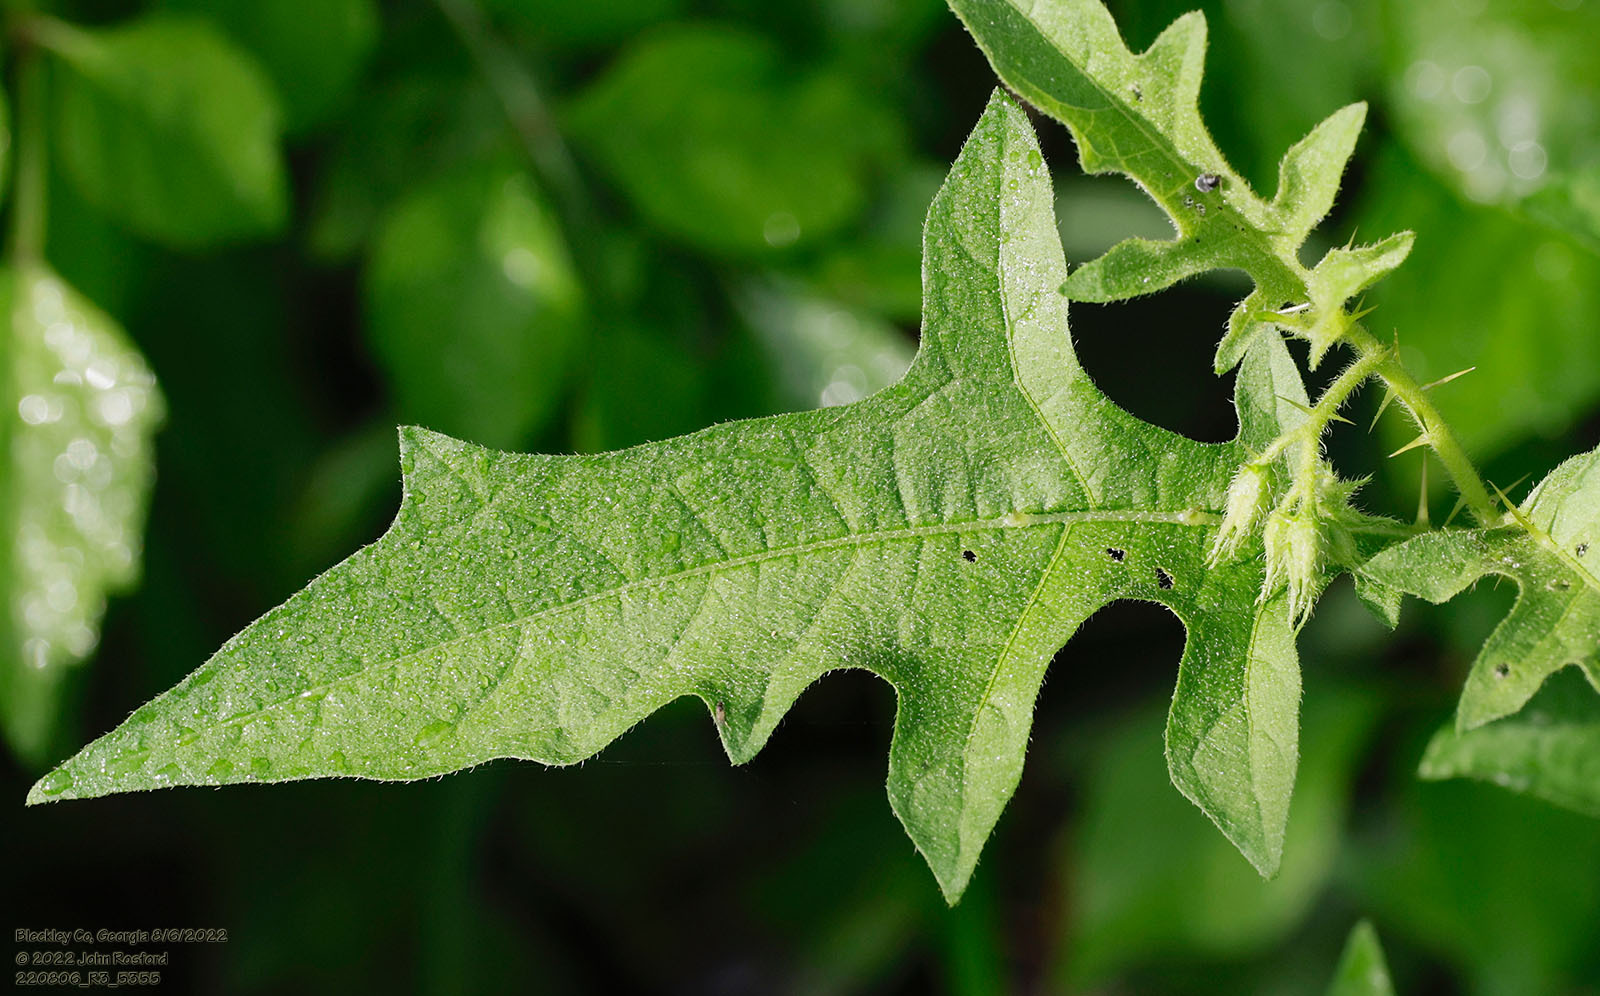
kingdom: Plantae
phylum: Tracheophyta
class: Magnoliopsida
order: Solanales
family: Solanaceae
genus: Solanum
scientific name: Solanum carolinense
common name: Horse-nettle
